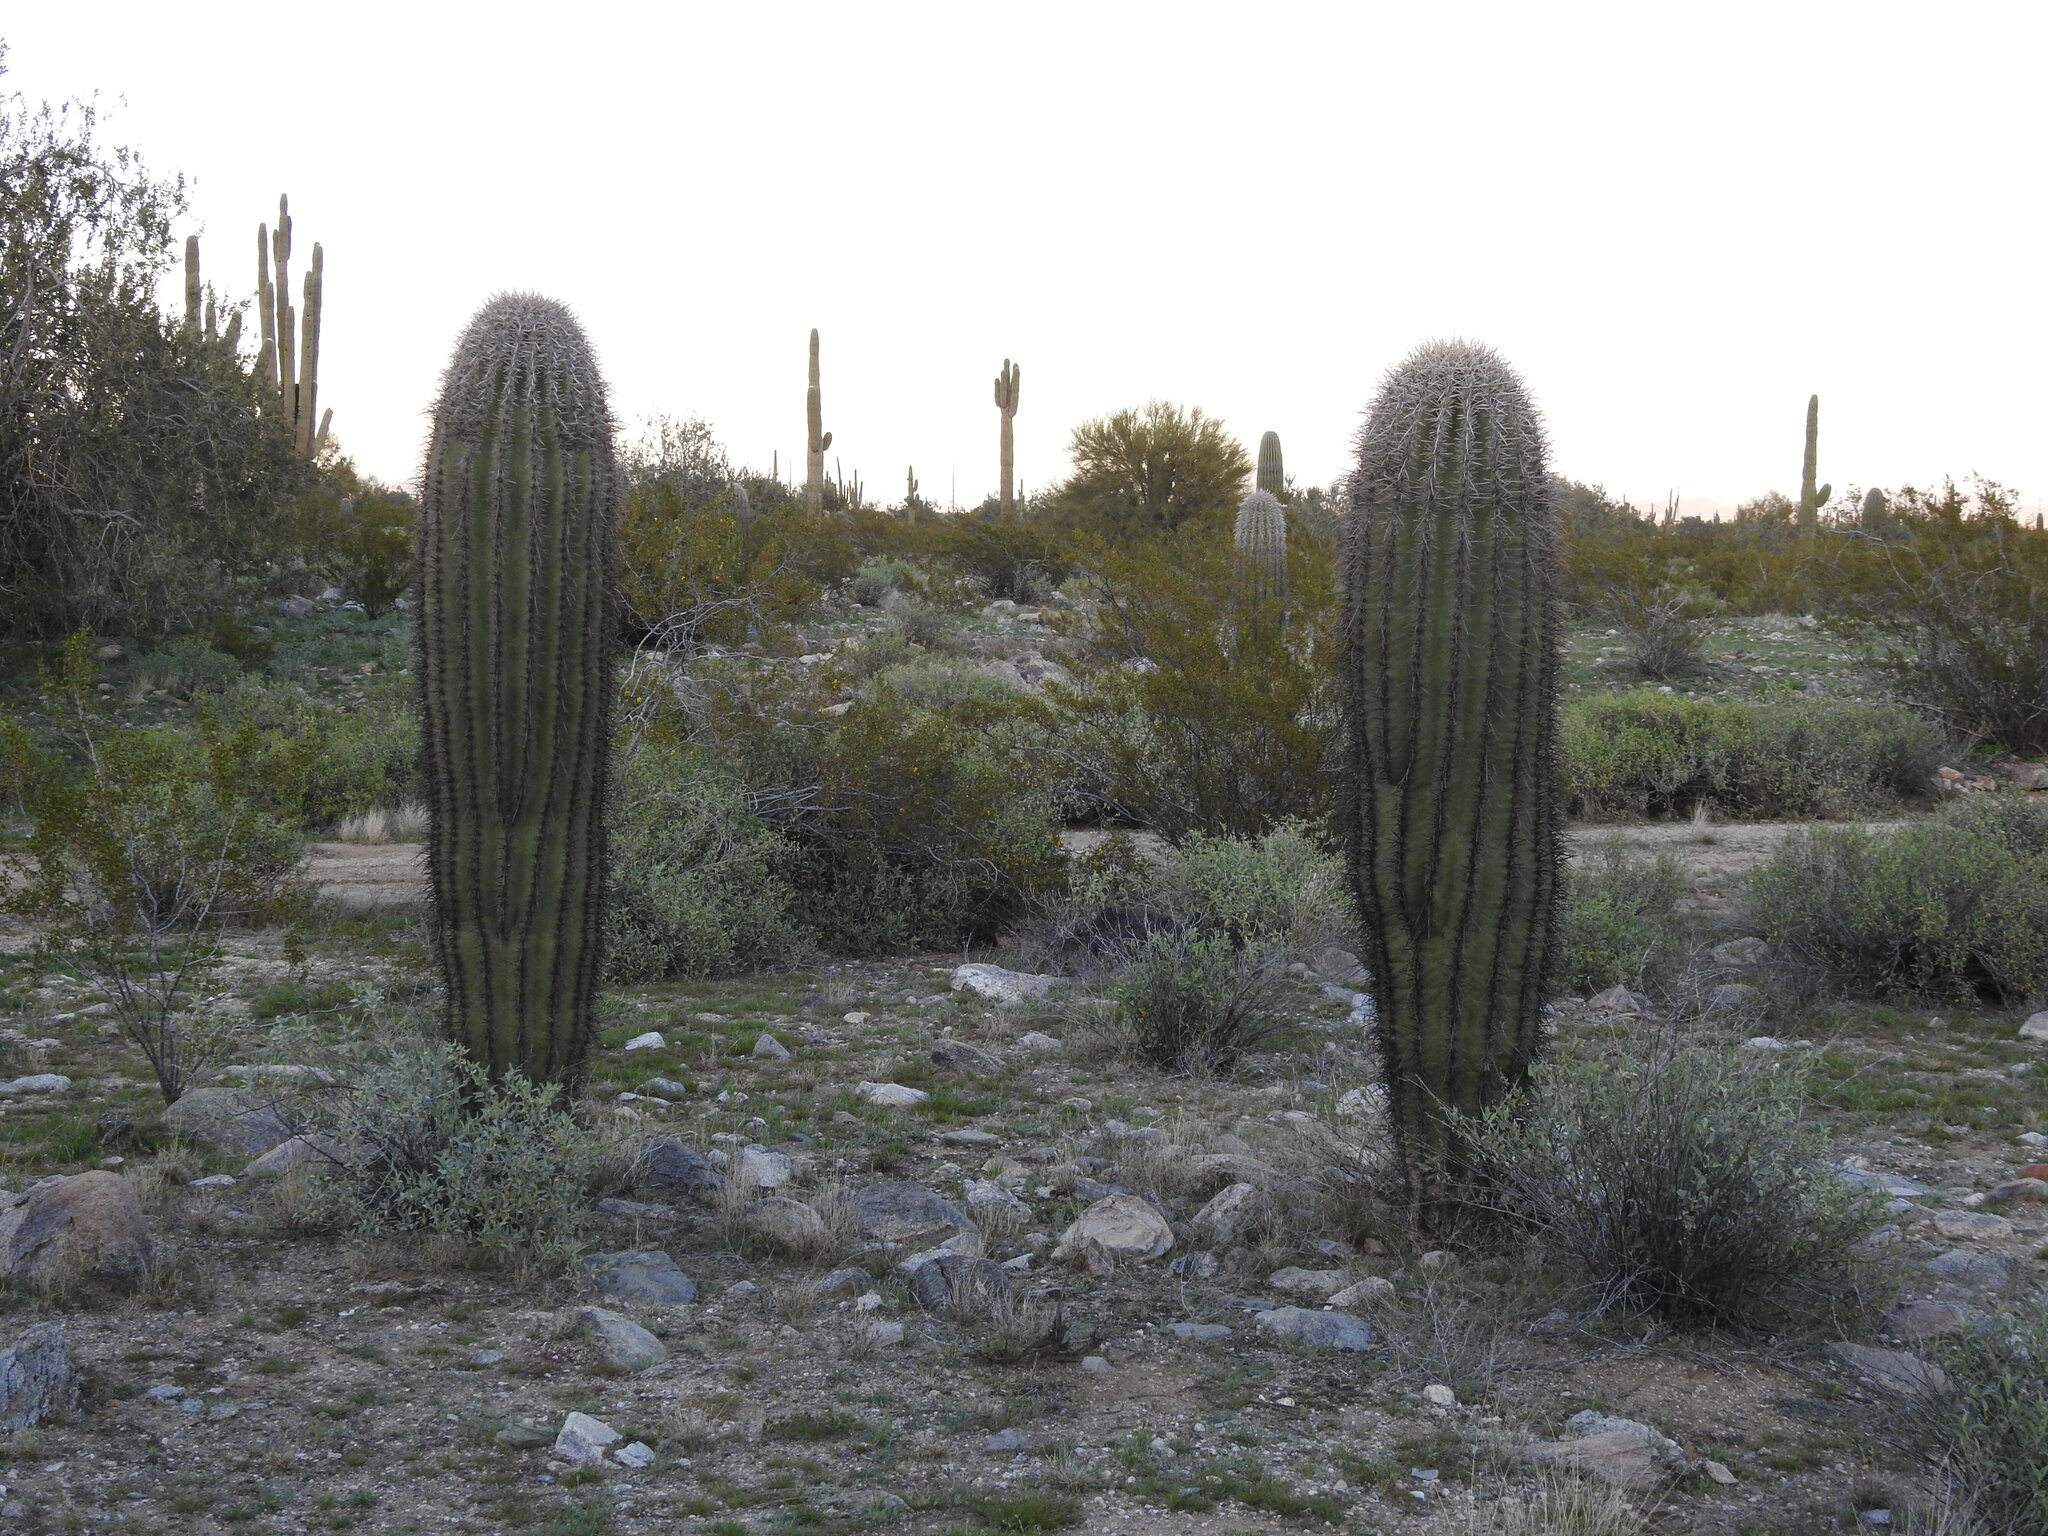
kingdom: Plantae
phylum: Tracheophyta
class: Magnoliopsida
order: Caryophyllales
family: Cactaceae
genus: Carnegiea
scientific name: Carnegiea gigantea
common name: Saguaro
